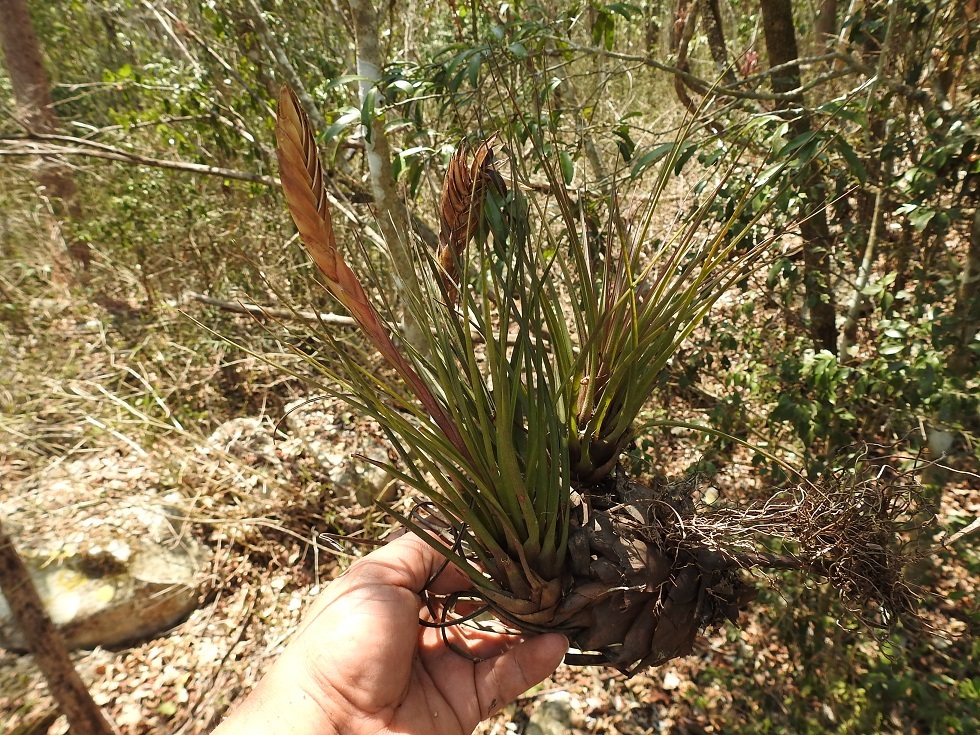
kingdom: Plantae
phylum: Tracheophyta
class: Liliopsida
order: Poales
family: Bromeliaceae
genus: Tillandsia
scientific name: Tillandsia zoquensis
